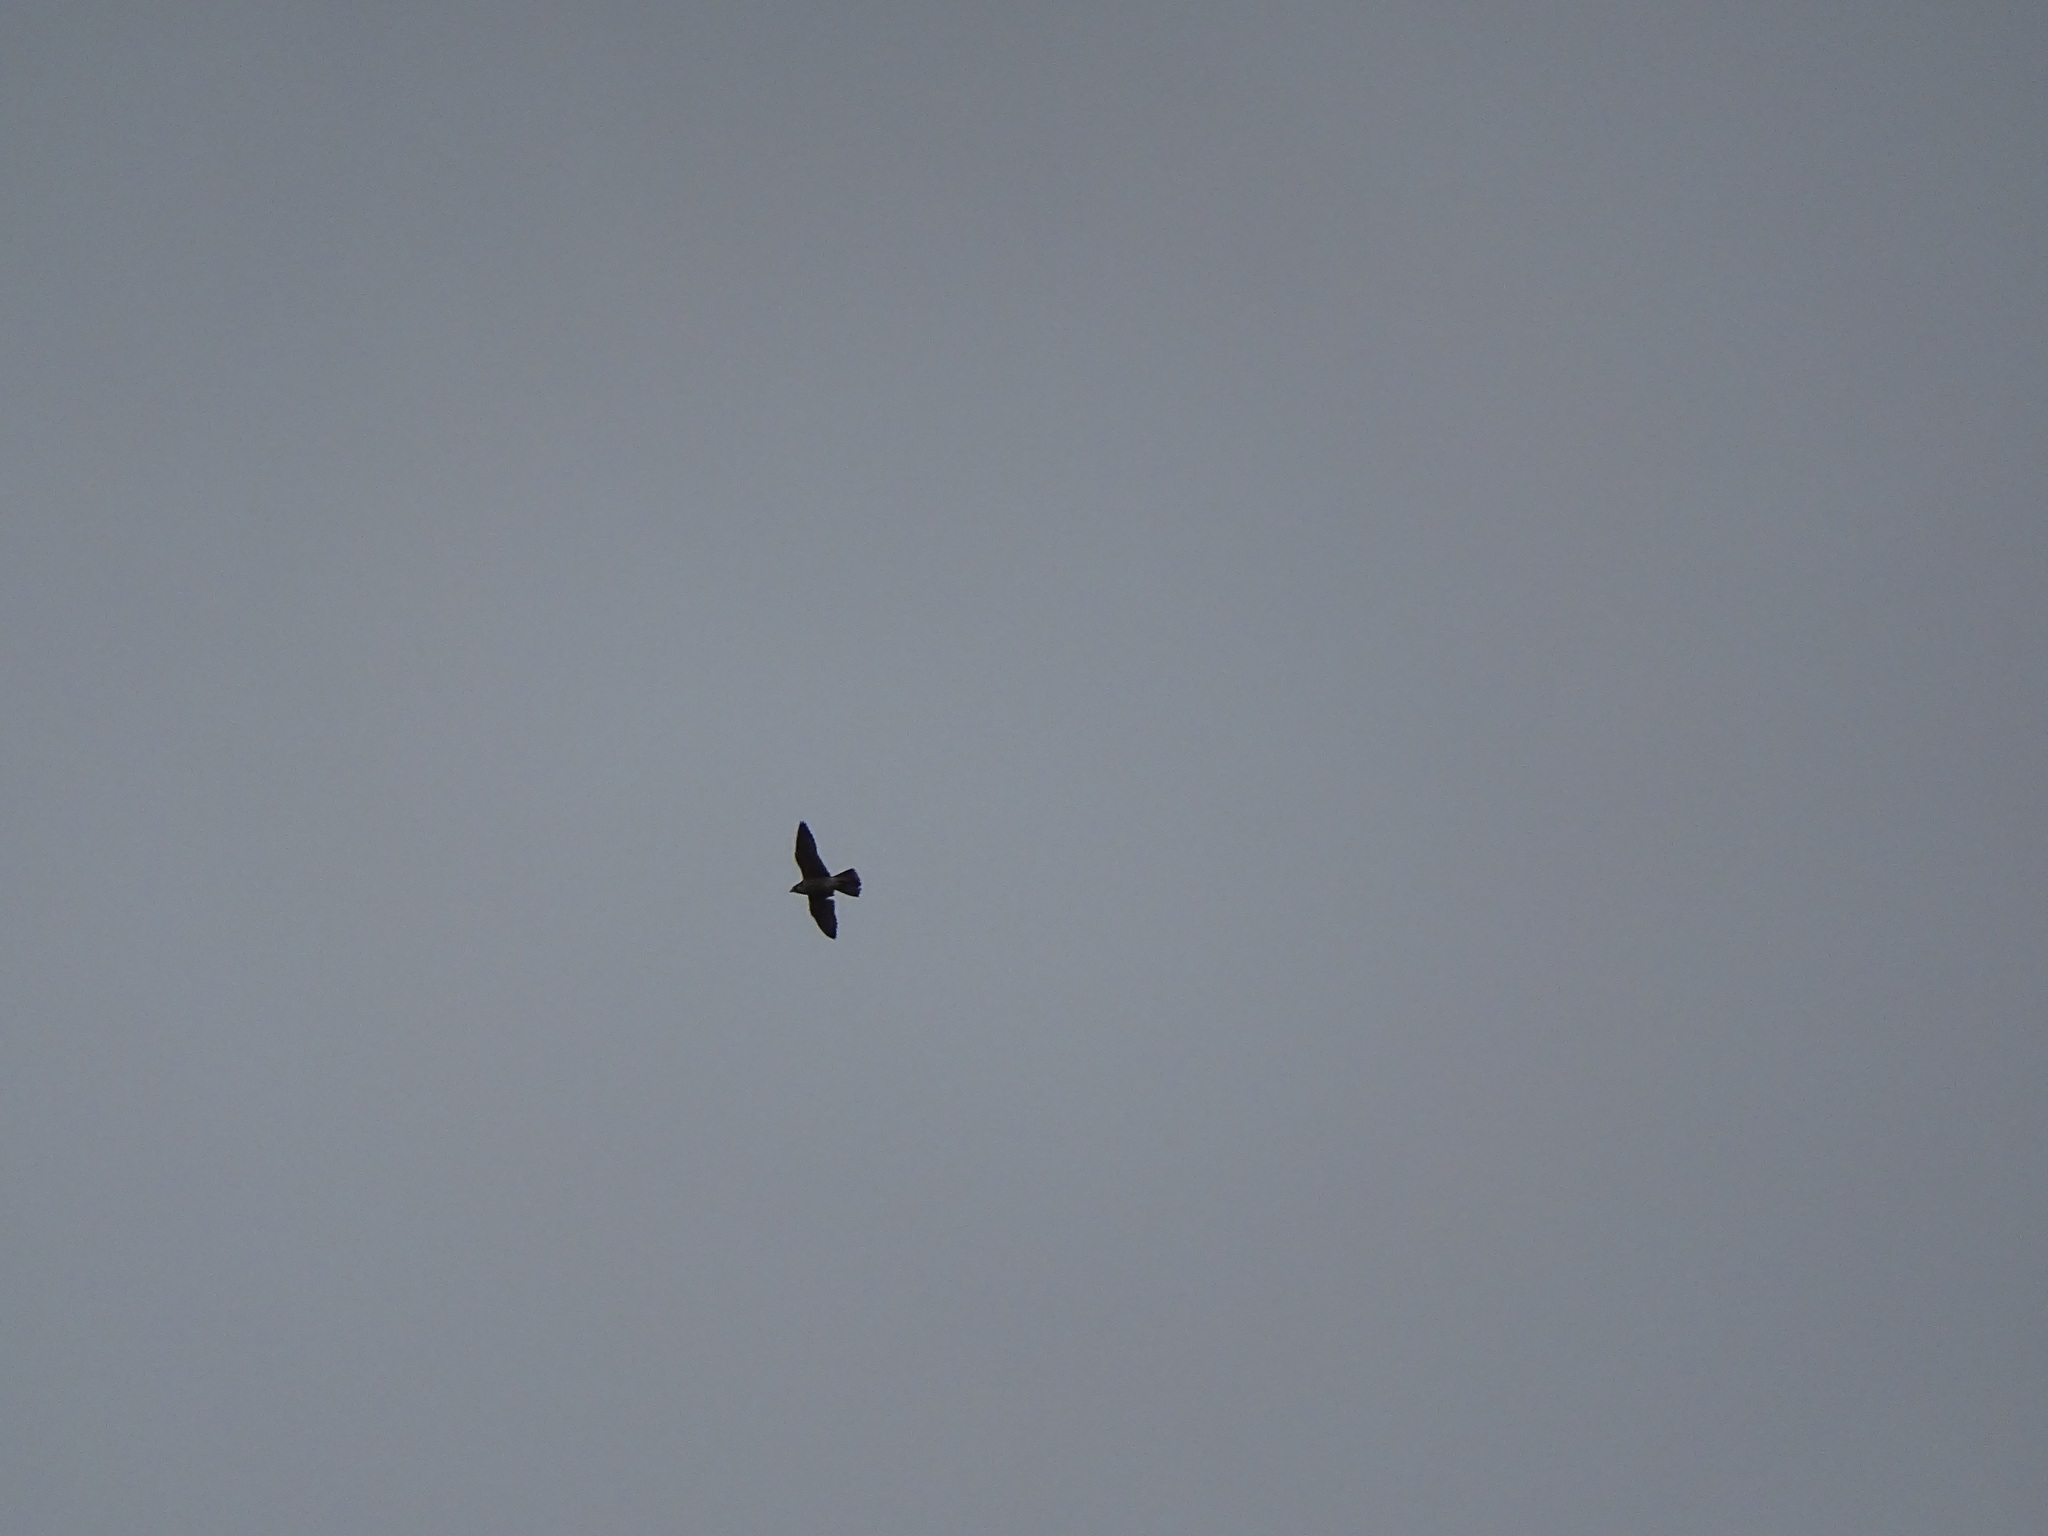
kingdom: Animalia
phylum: Chordata
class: Aves
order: Falconiformes
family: Falconidae
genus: Falco
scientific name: Falco peregrinus
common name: Peregrine falcon
